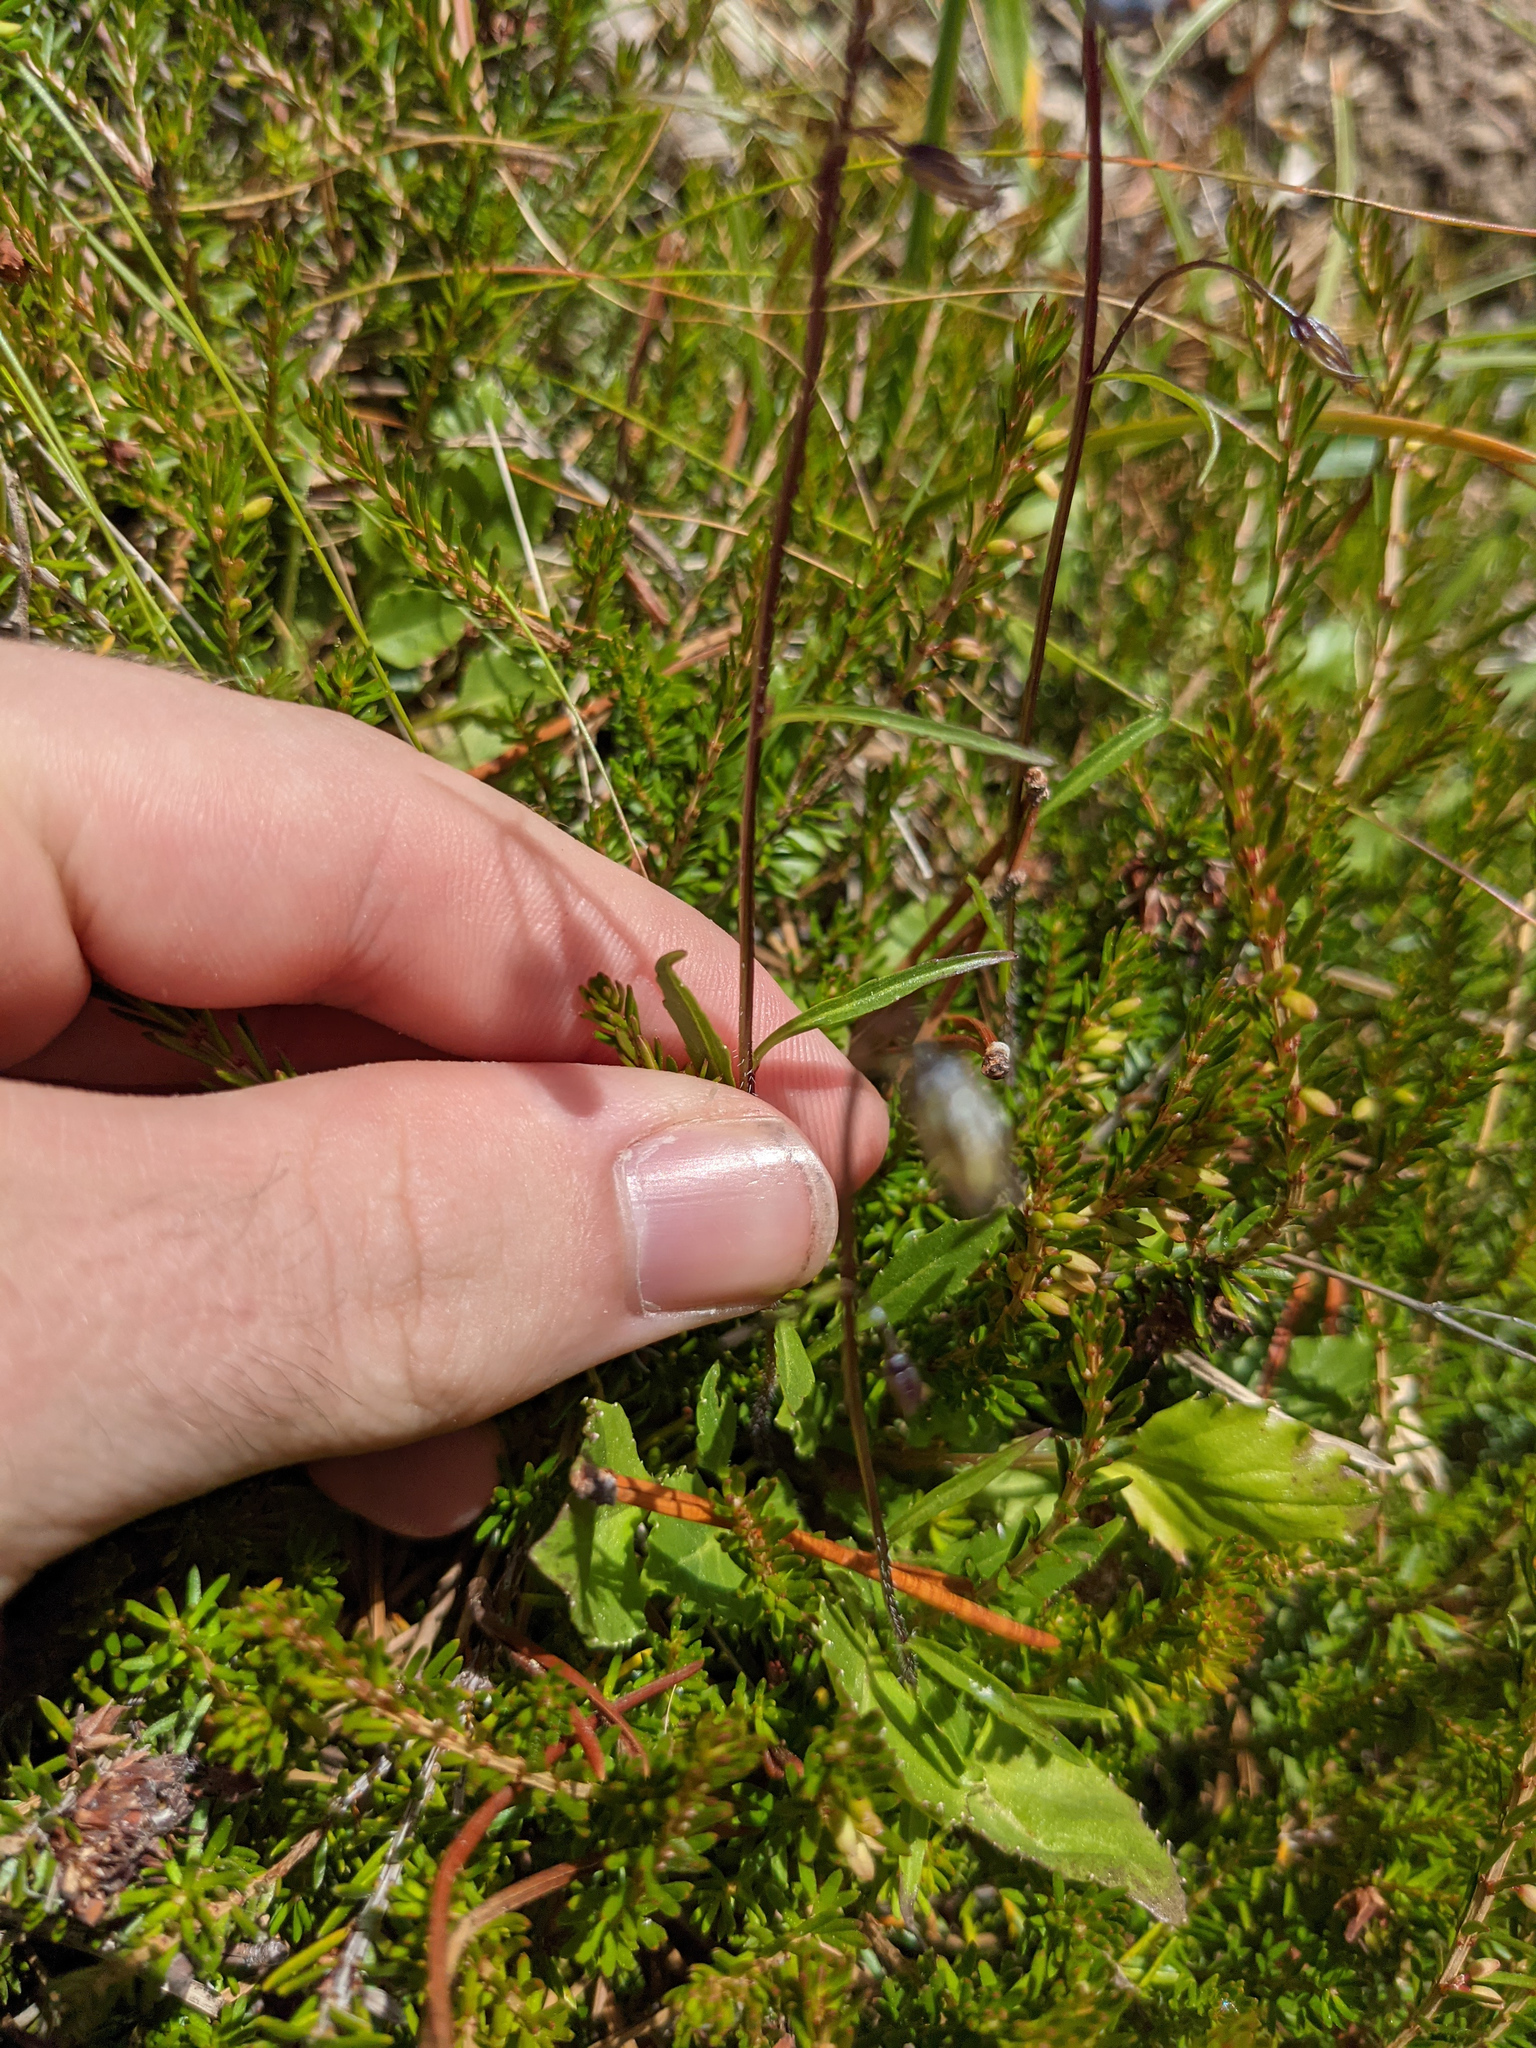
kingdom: Plantae
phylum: Tracheophyta
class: Magnoliopsida
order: Asterales
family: Campanulaceae
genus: Campanula
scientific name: Campanula cochleariifolia
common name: Fairies'-thimbles
